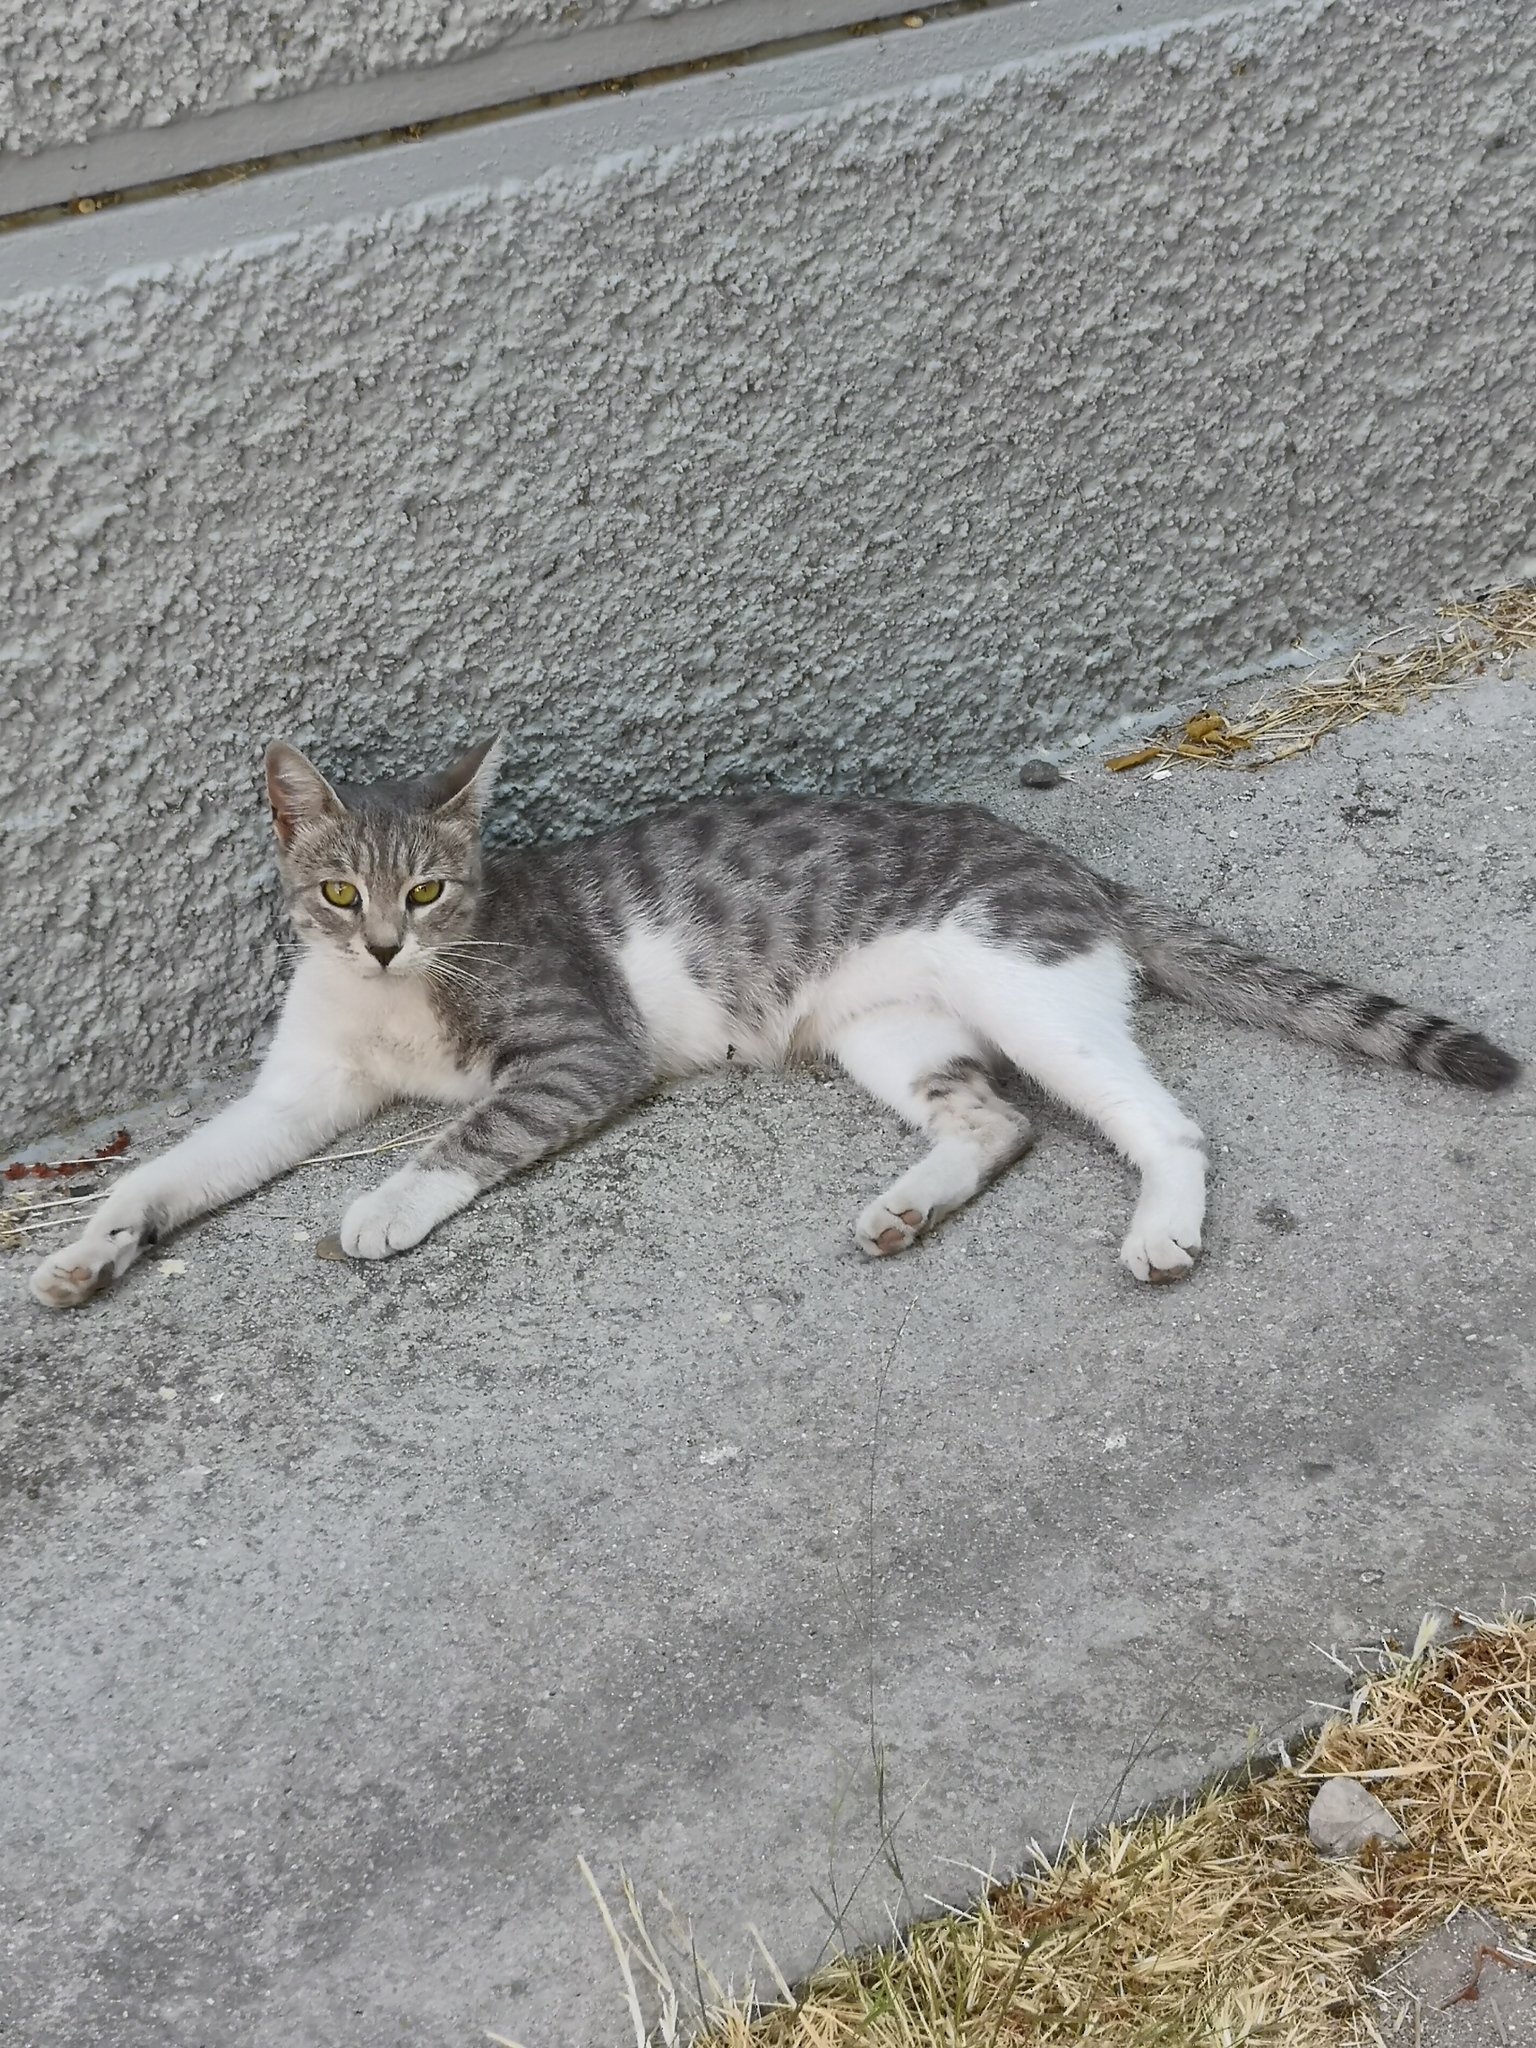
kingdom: Animalia
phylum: Chordata
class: Mammalia
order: Carnivora
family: Felidae
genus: Felis
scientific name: Felis catus
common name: Domestic cat
